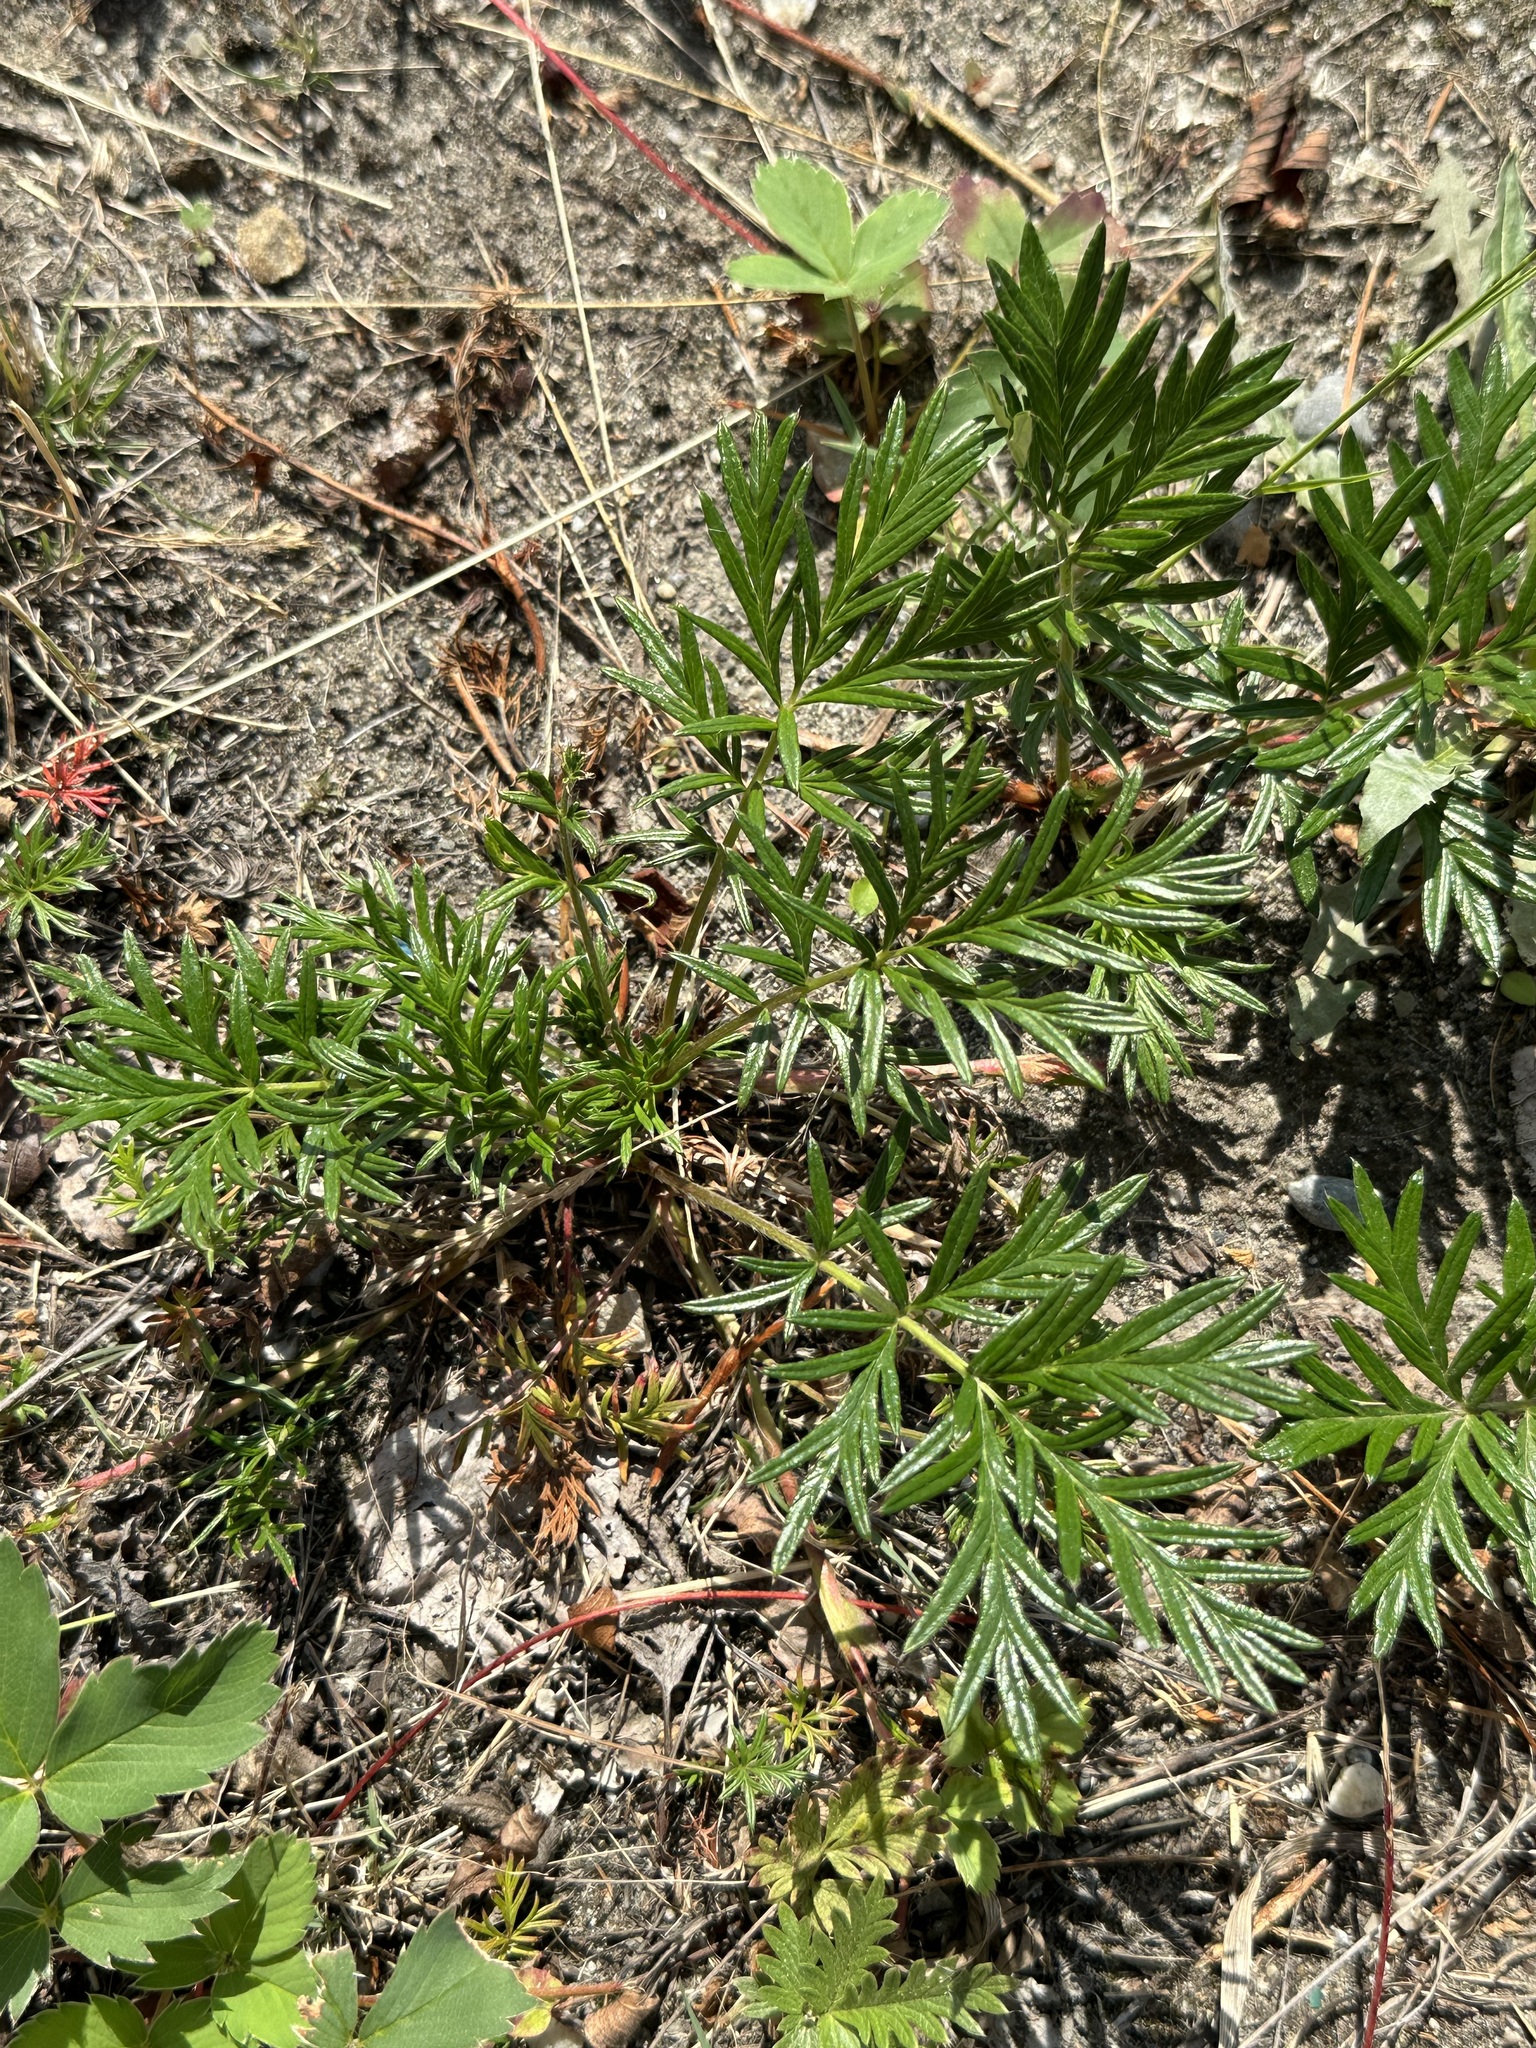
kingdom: Plantae
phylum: Tracheophyta
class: Magnoliopsida
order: Rosales
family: Rosaceae
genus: Potentilla
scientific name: Potentilla bimundorum
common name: Cut-leaved cinquefoil
